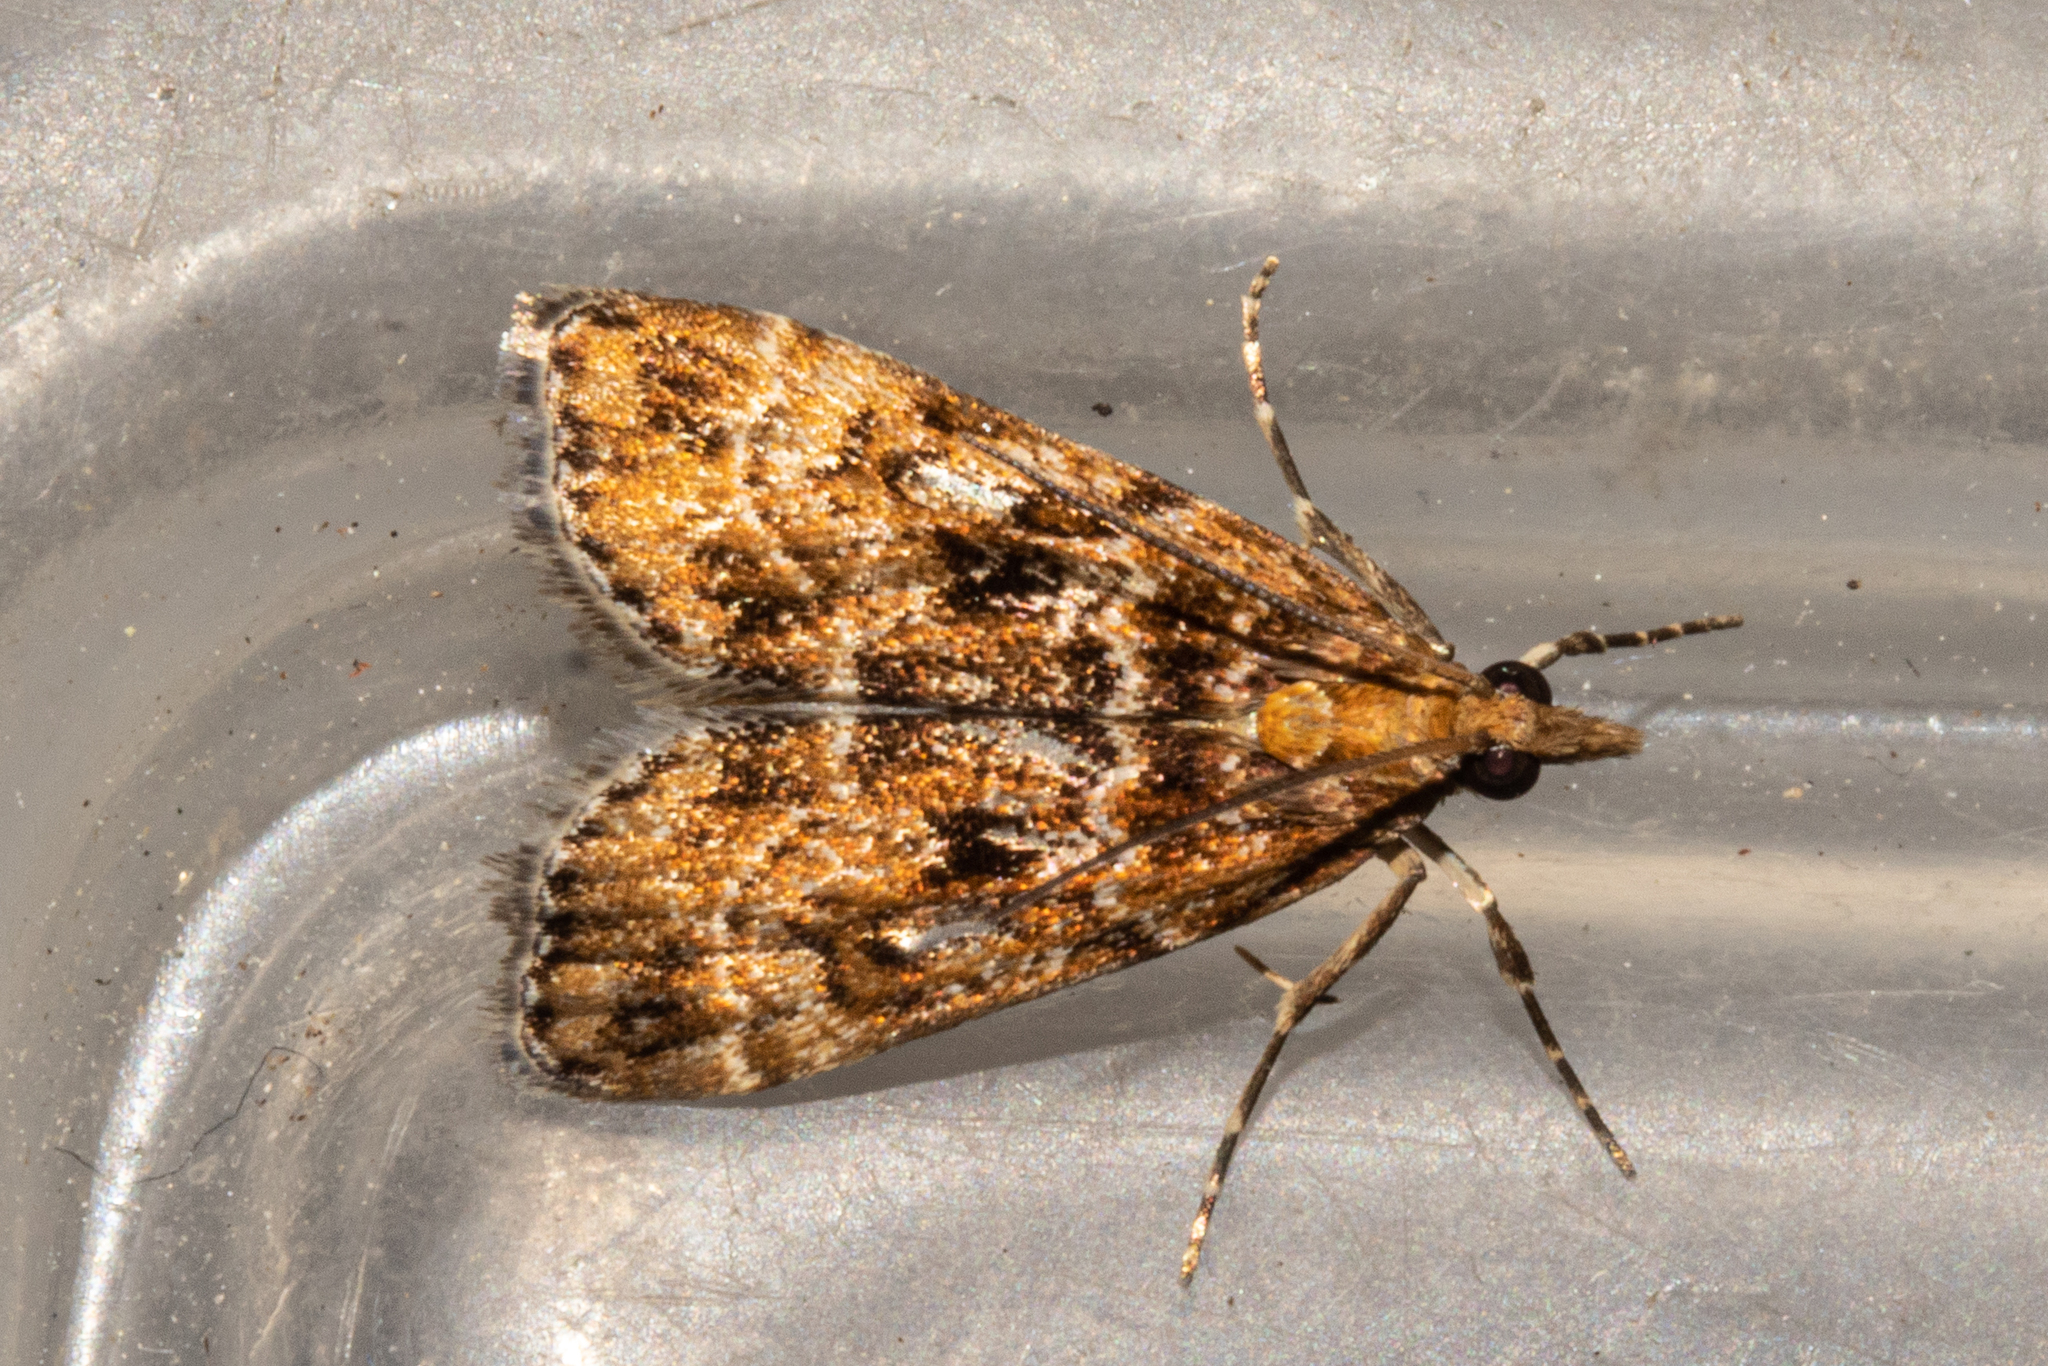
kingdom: Animalia
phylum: Arthropoda
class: Insecta
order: Lepidoptera
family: Crambidae
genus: Scoparia
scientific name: Scoparia animosa
